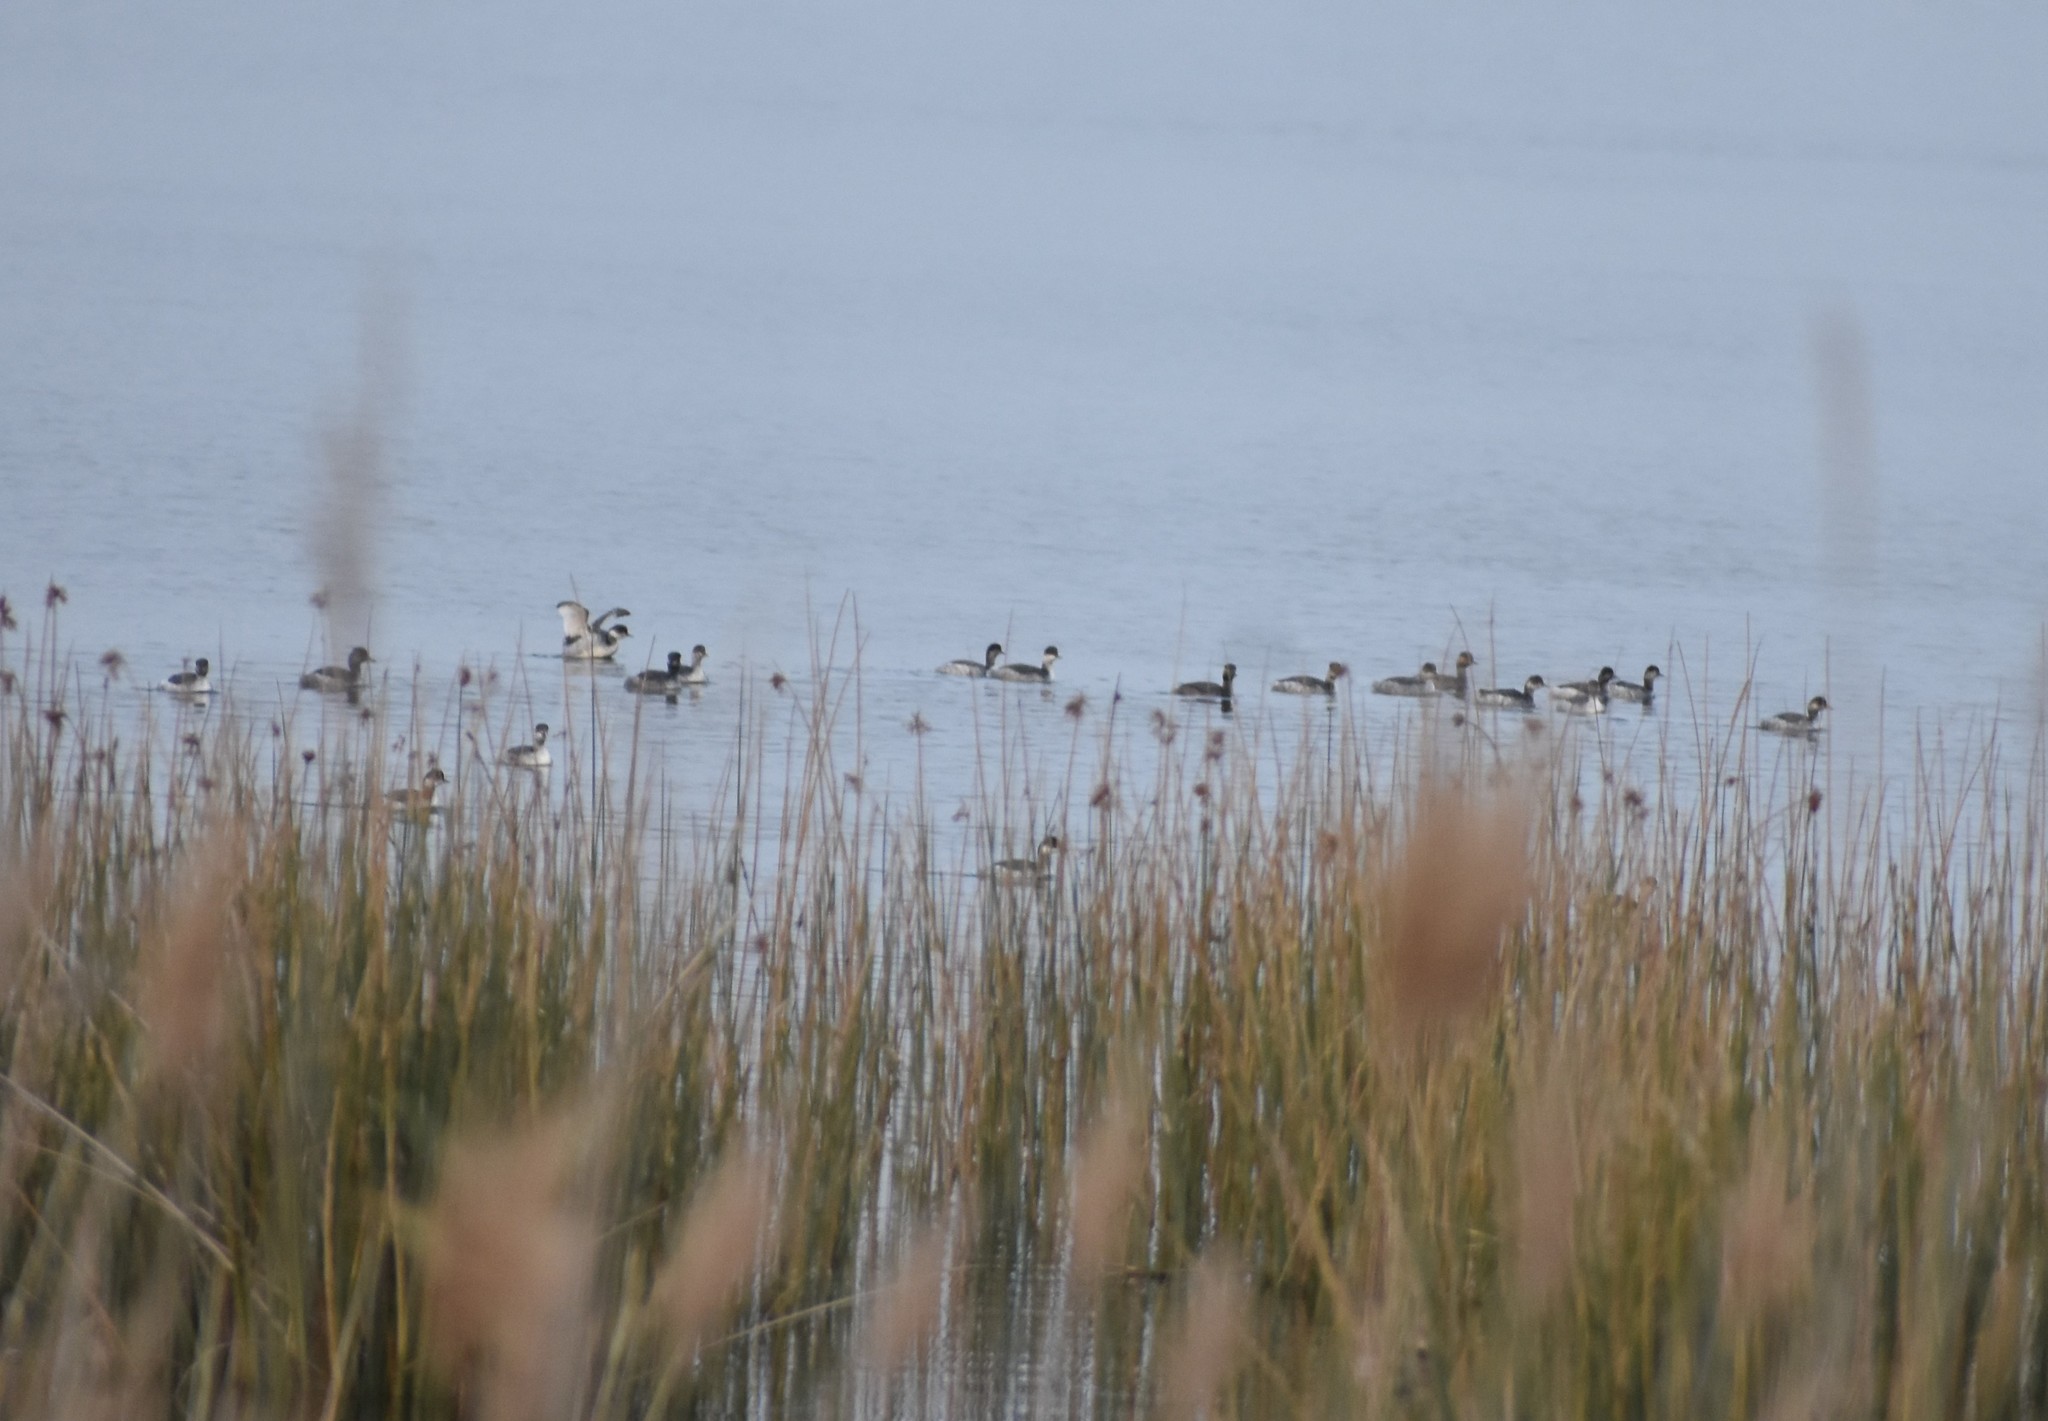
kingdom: Animalia
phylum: Chordata
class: Aves
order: Podicipediformes
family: Podicipedidae
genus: Podiceps
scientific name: Podiceps nigricollis
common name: Black-necked grebe
